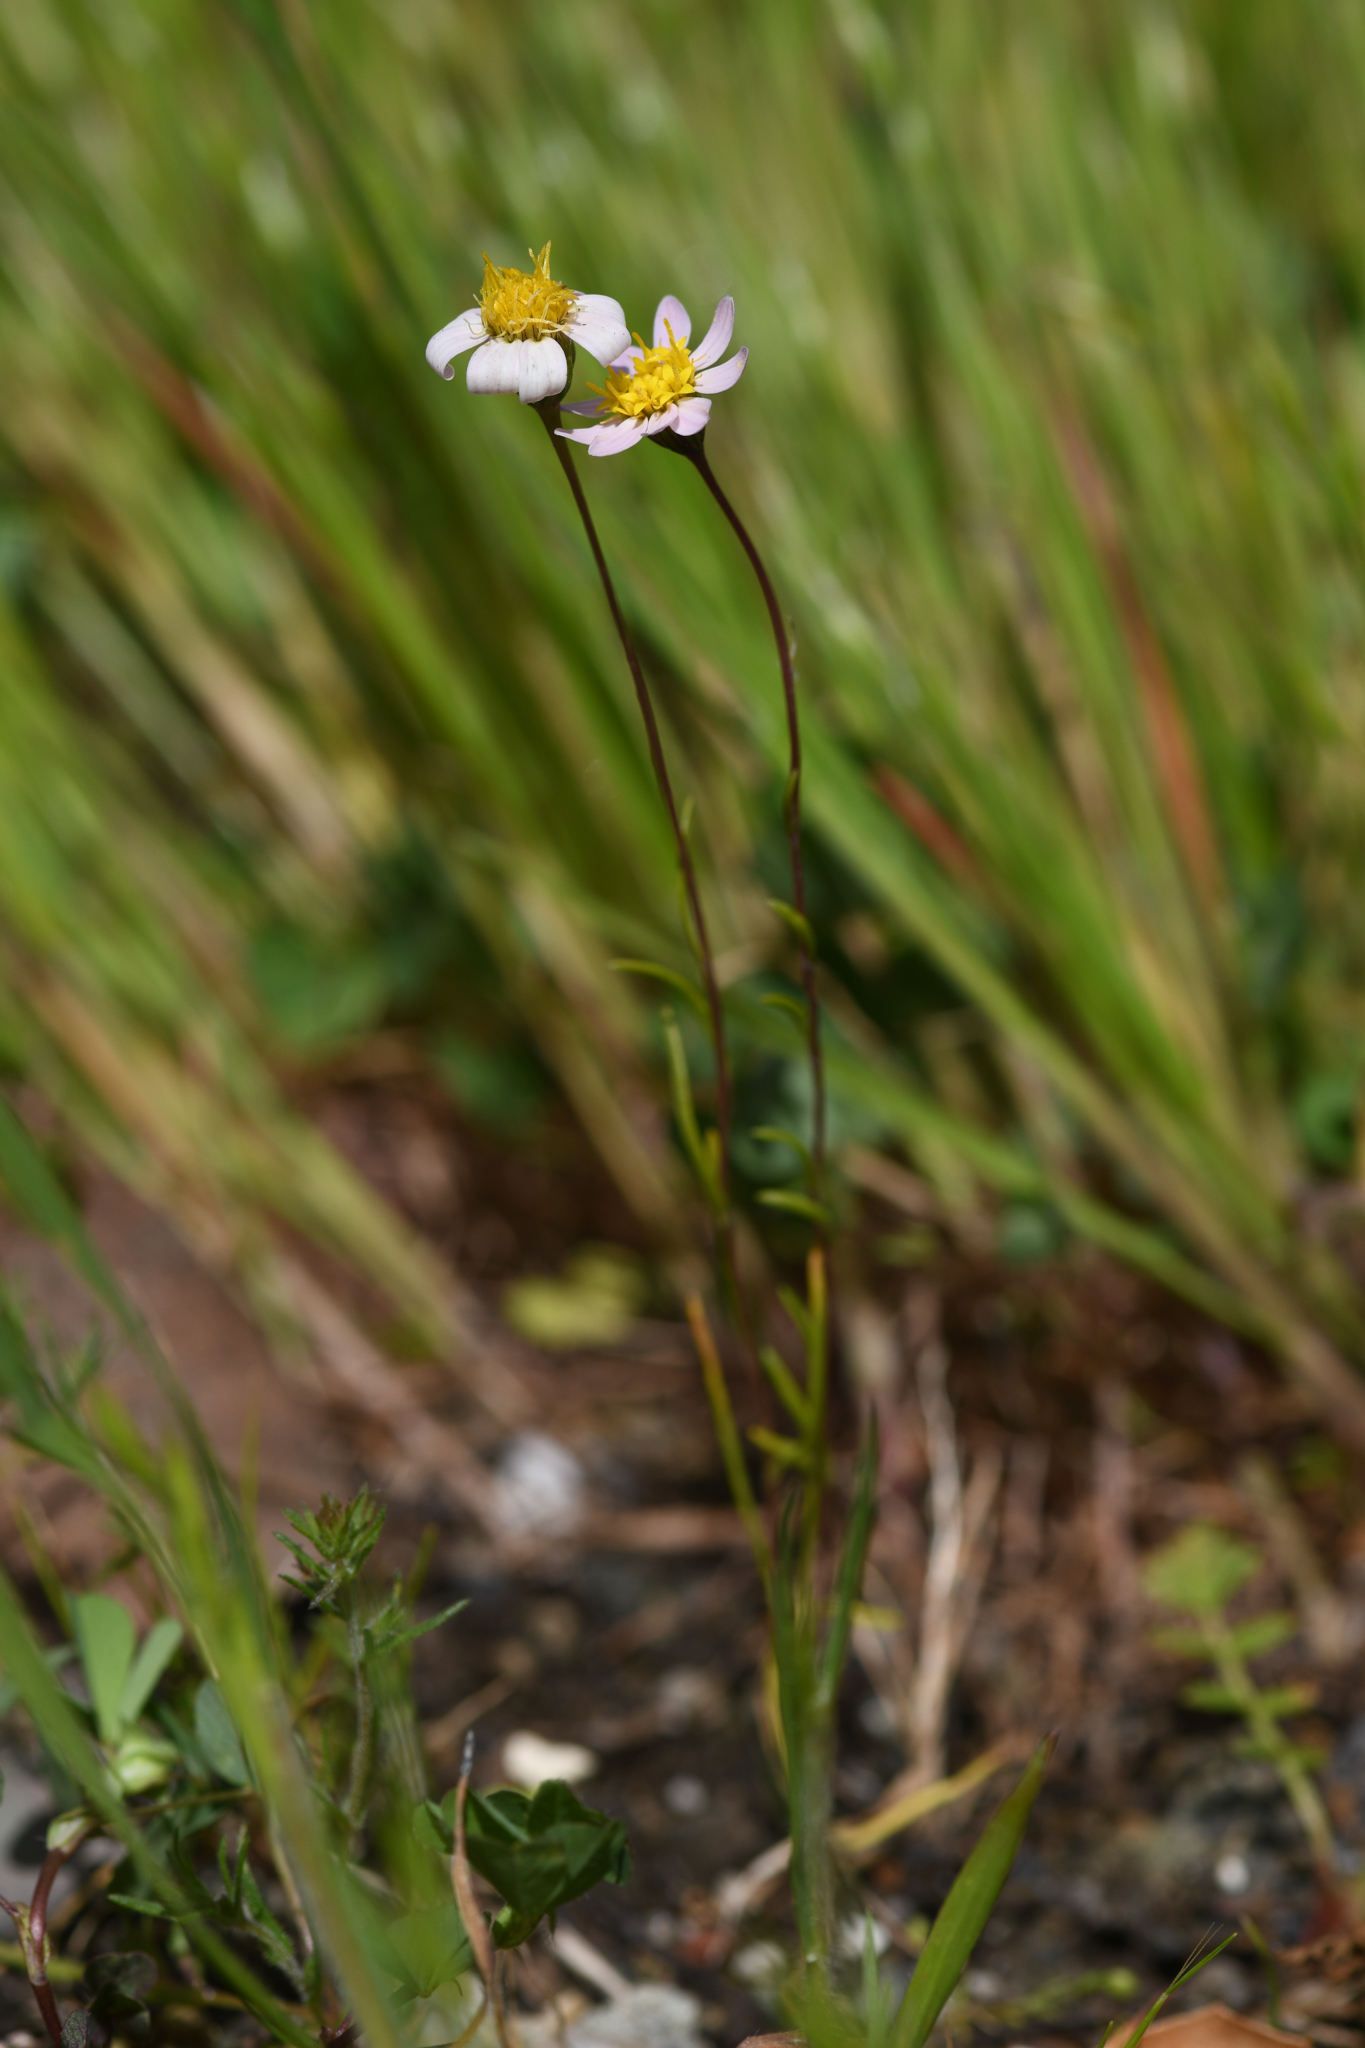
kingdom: Plantae
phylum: Tracheophyta
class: Magnoliopsida
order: Asterales
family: Asteraceae
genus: Pentachaeta
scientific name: Pentachaeta bellidiflora
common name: White-ray pentachaeta
